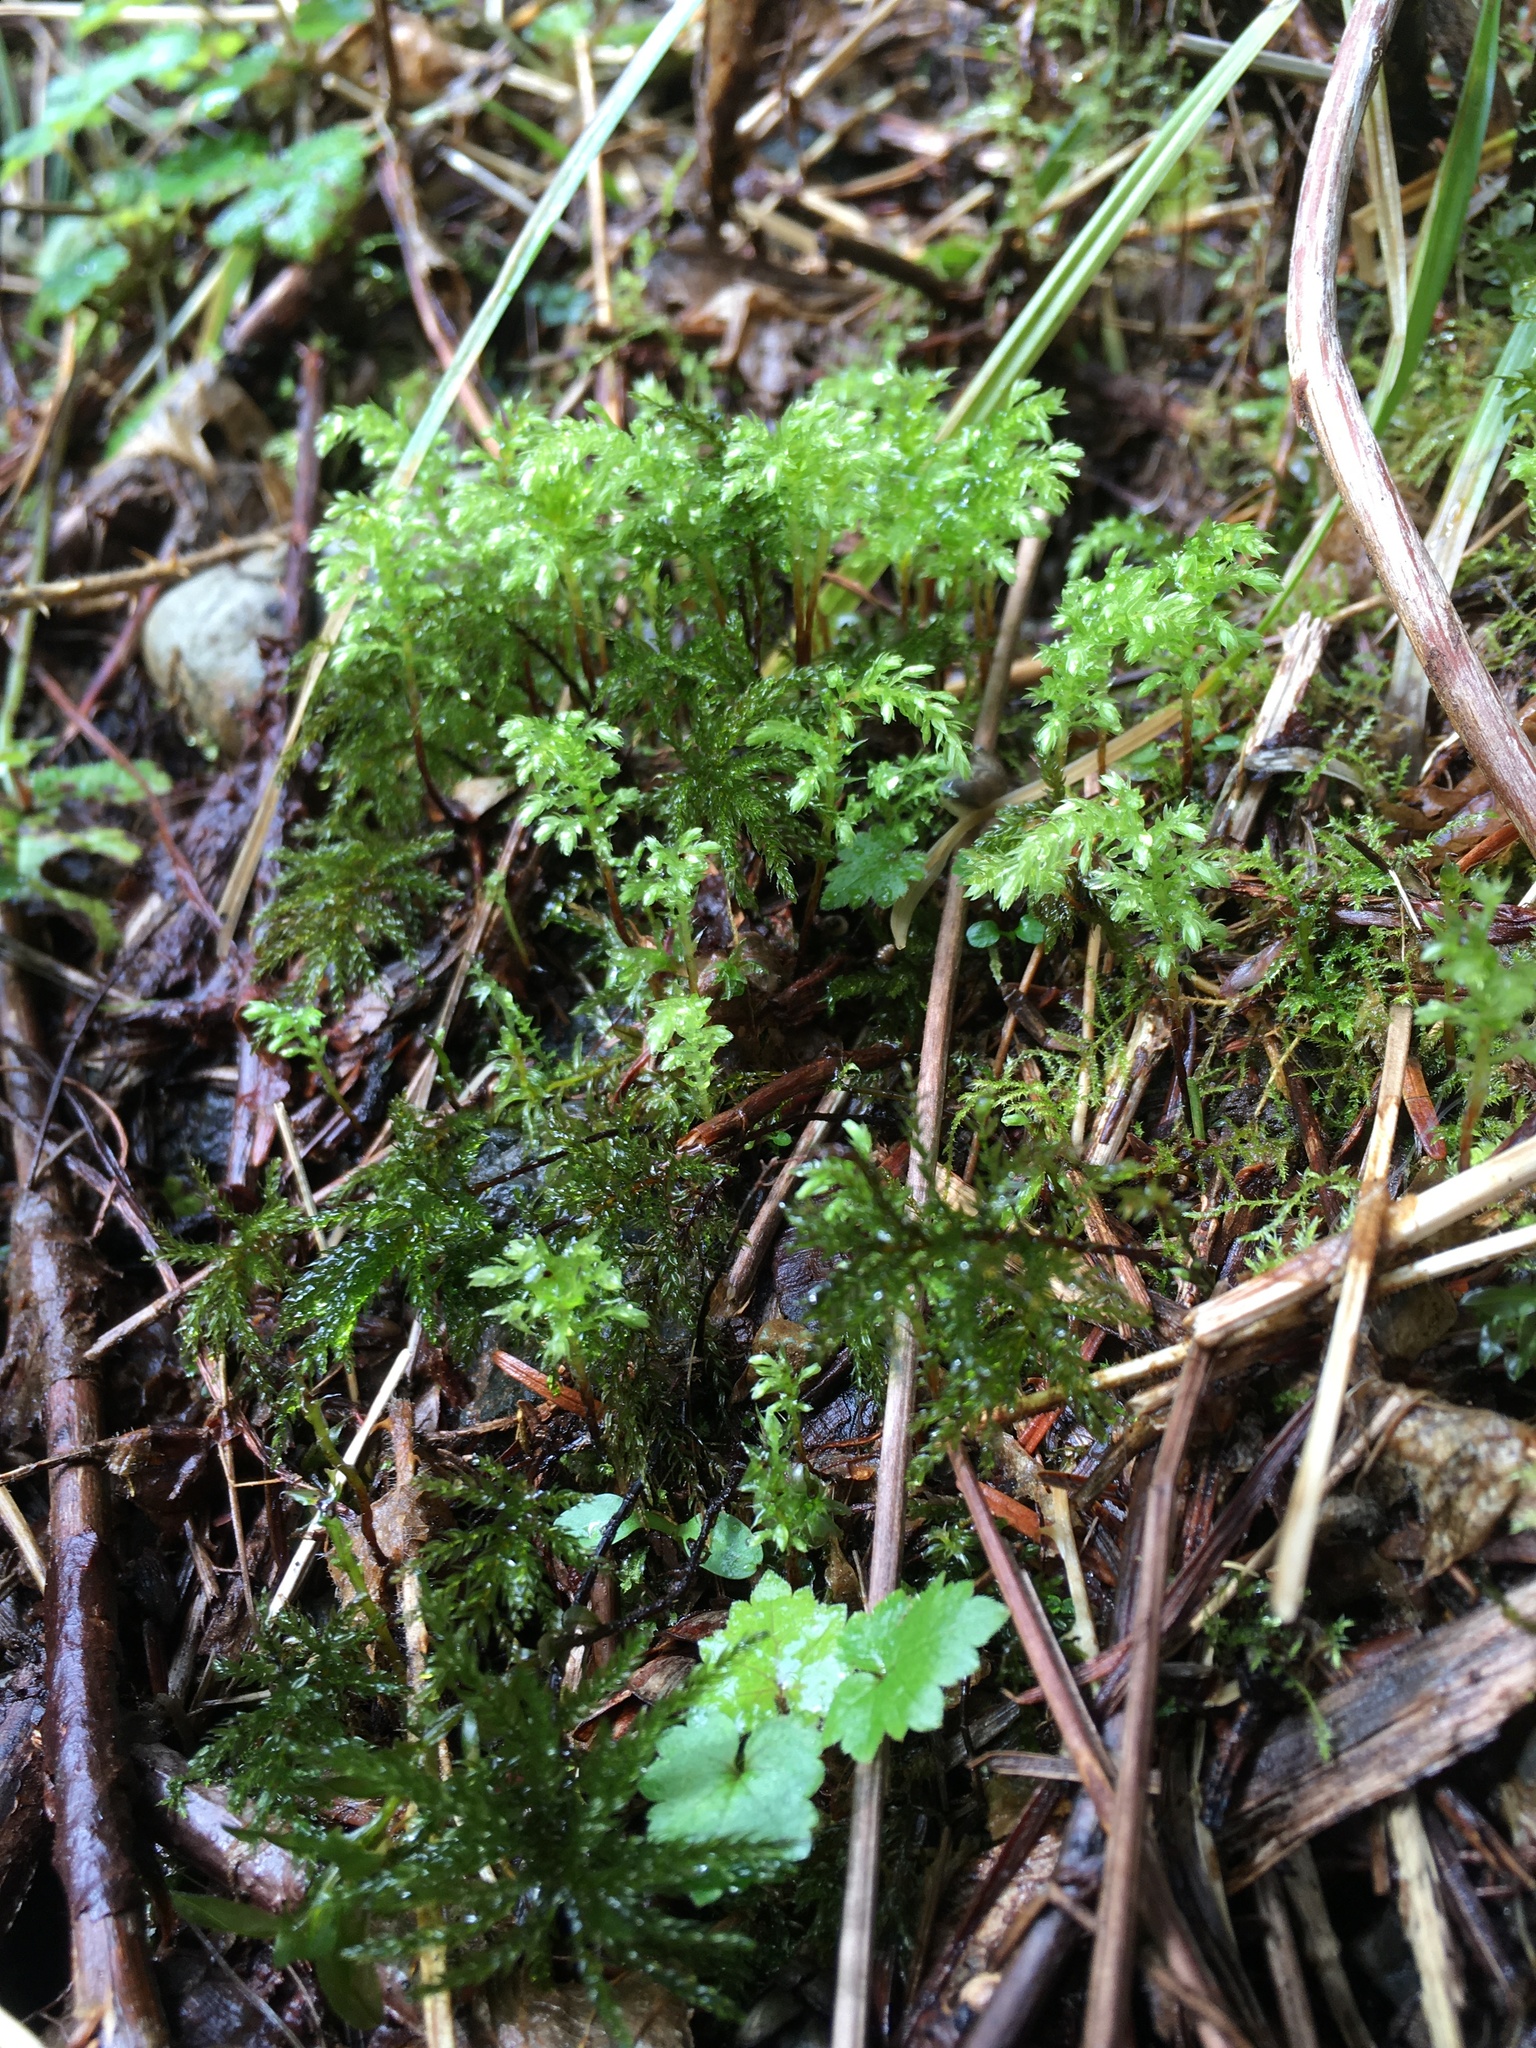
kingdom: Plantae
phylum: Bryophyta
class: Bryopsida
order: Bryales
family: Mniaceae
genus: Leucolepis
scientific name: Leucolepis acanthoneura
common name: Leucolepis umbrella moss
